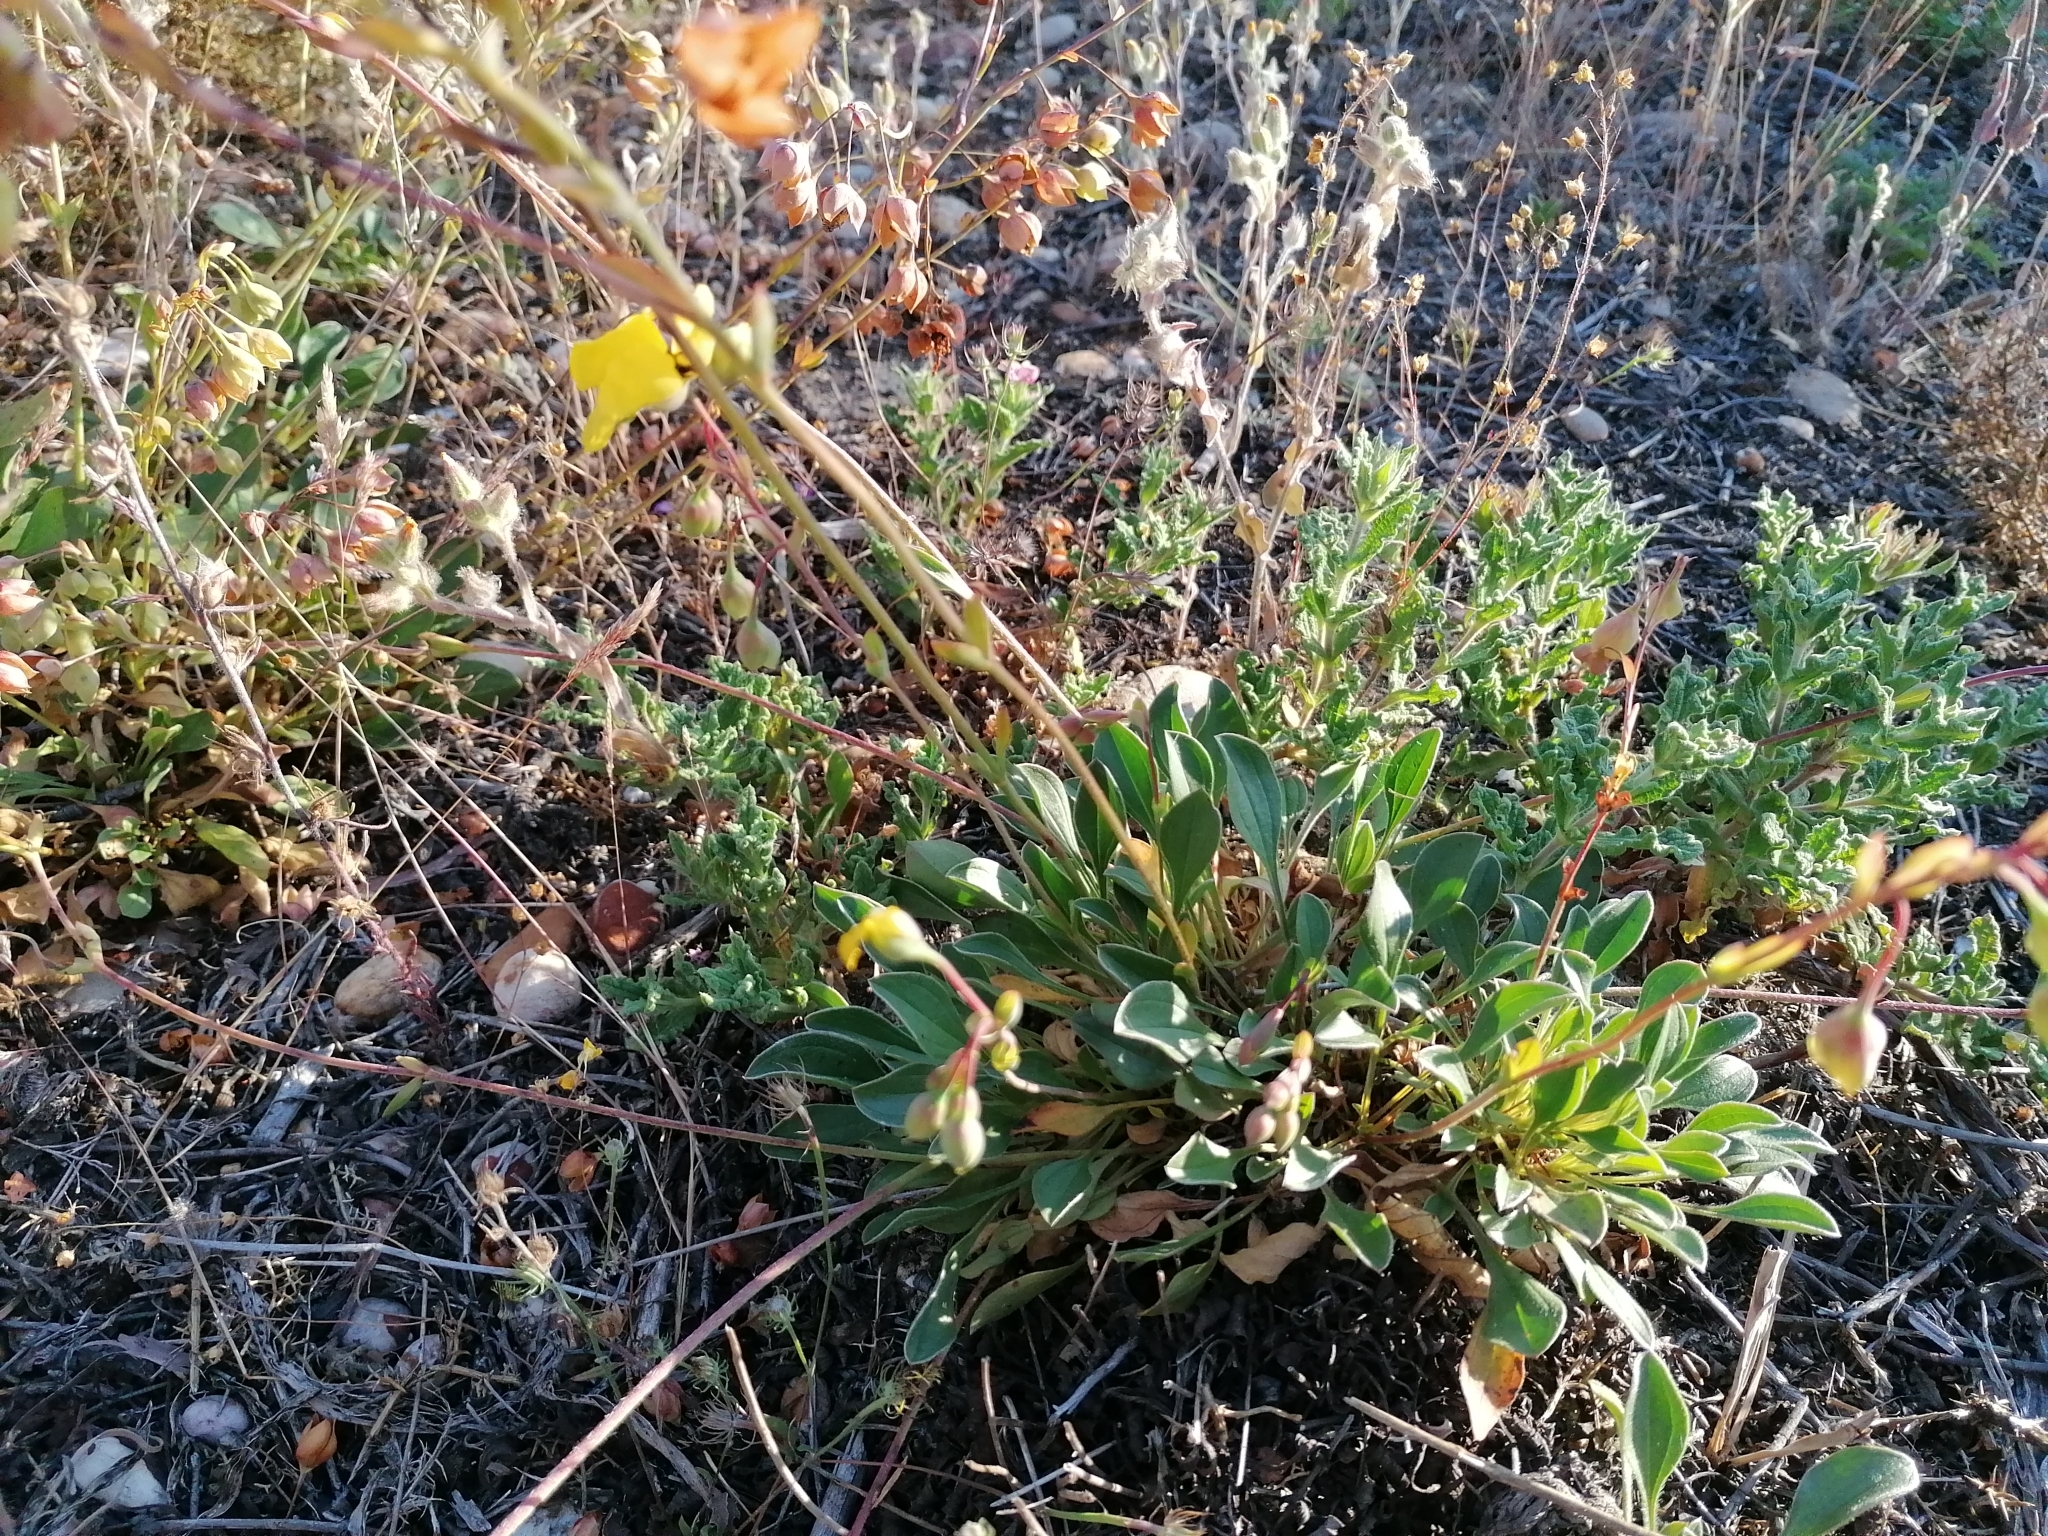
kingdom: Plantae
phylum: Tracheophyta
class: Magnoliopsida
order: Malvales
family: Cistaceae
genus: Tuberaria
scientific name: Tuberaria globulariifolia
